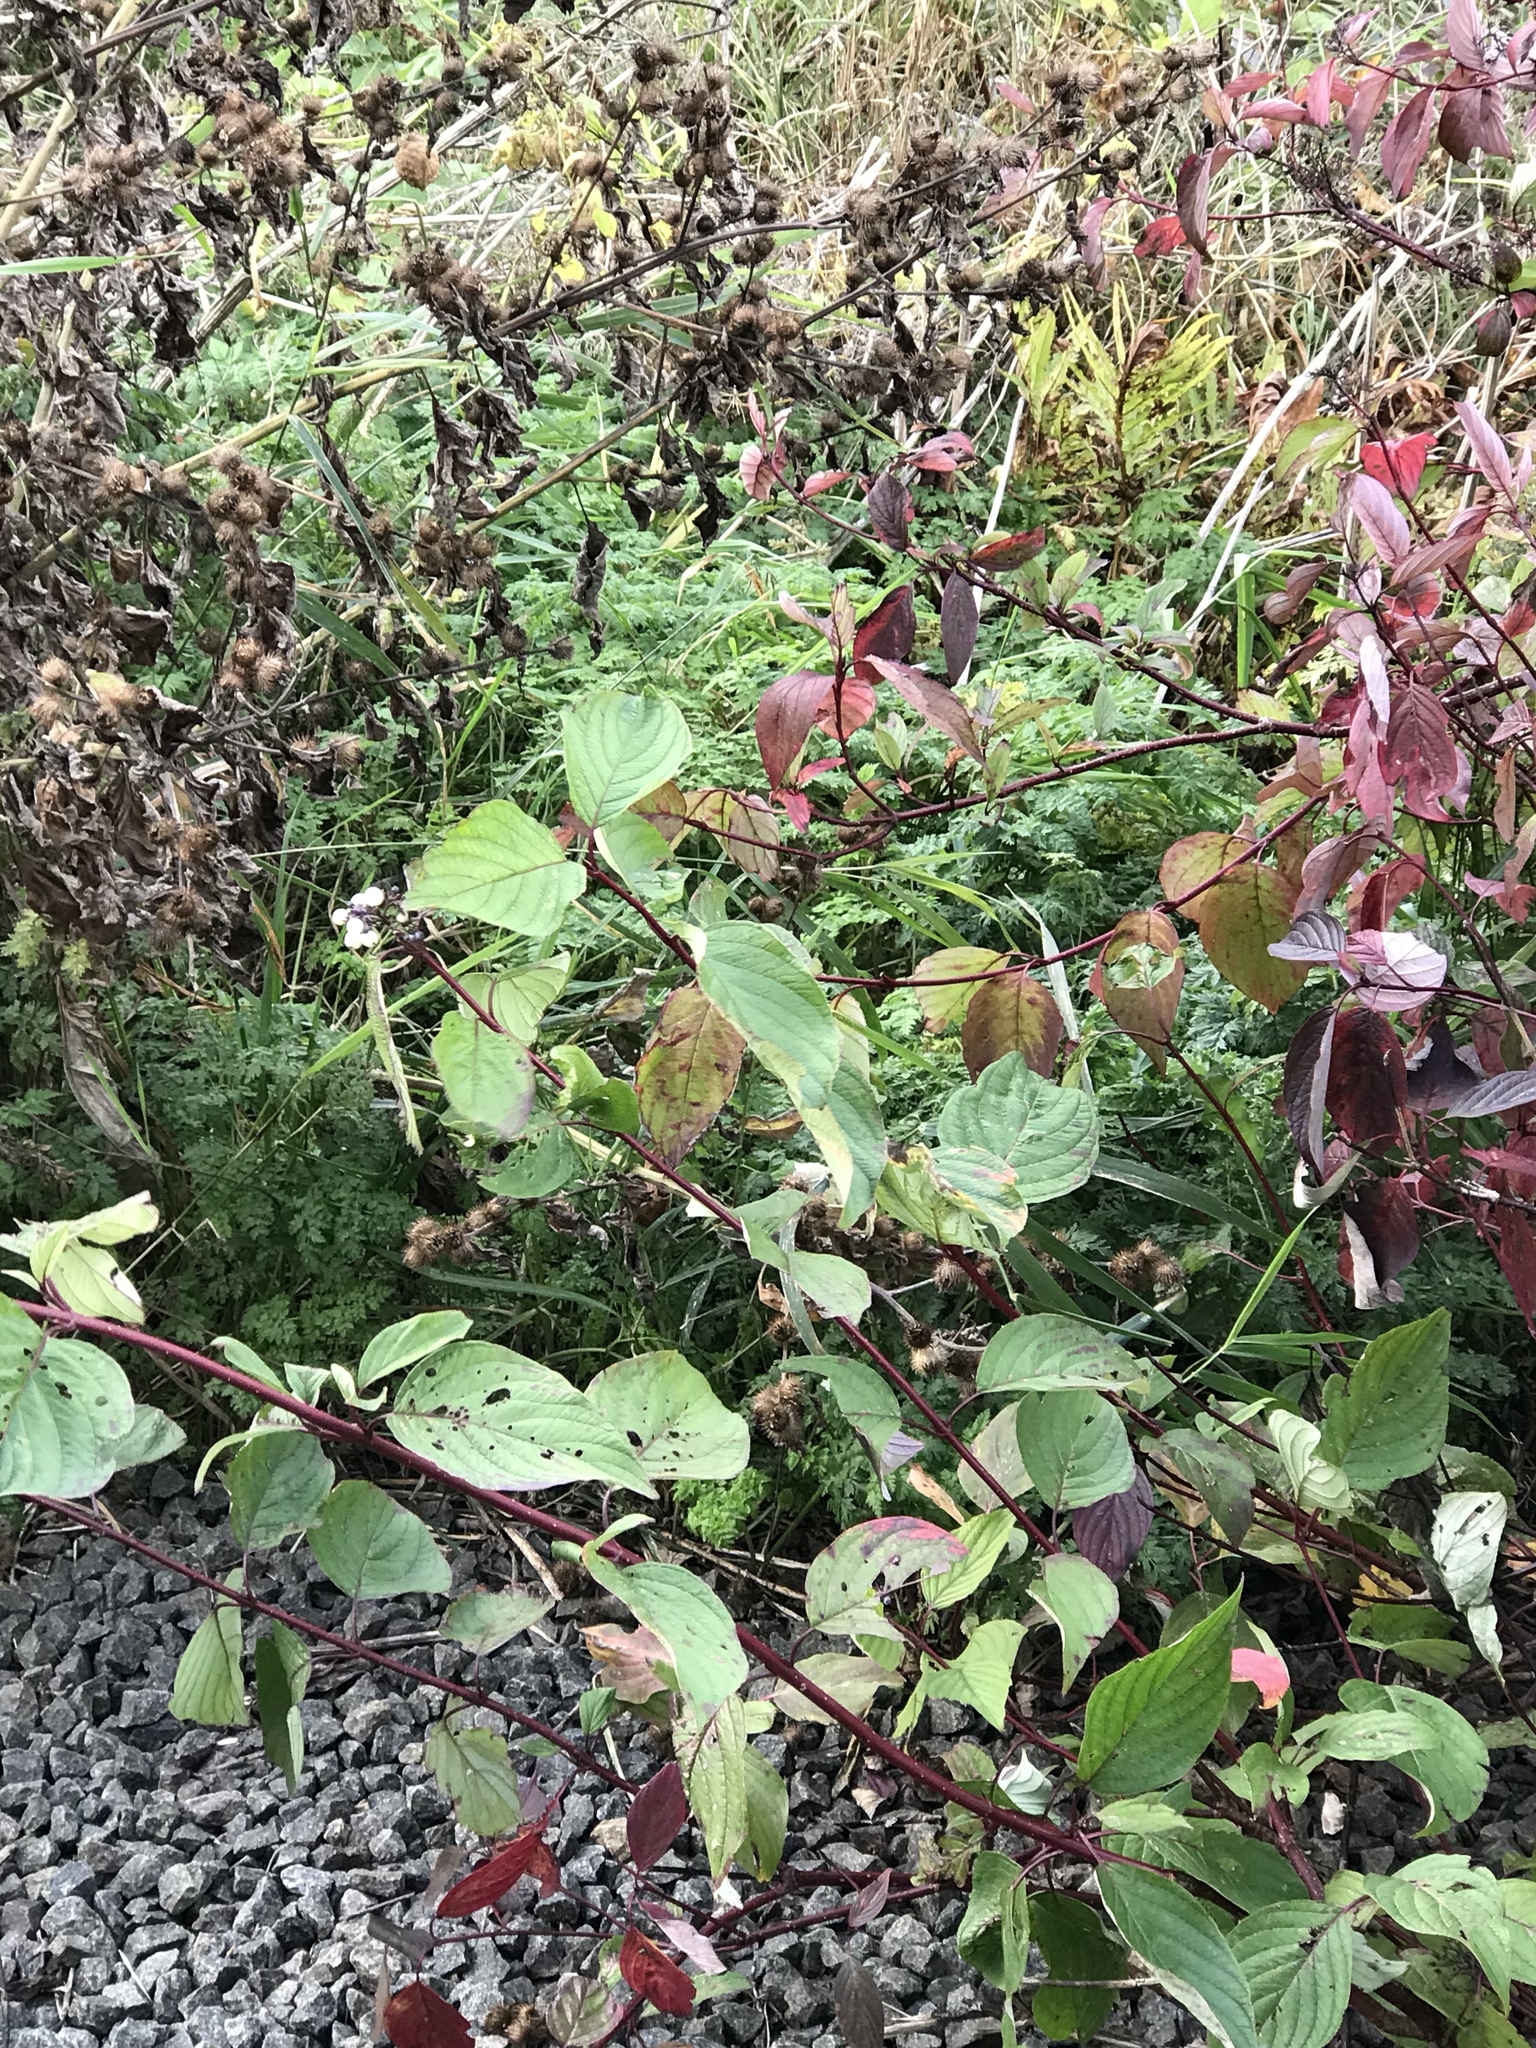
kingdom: Plantae
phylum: Tracheophyta
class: Magnoliopsida
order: Cornales
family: Cornaceae
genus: Cornus
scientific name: Cornus sericea
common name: Red-osier dogwood
